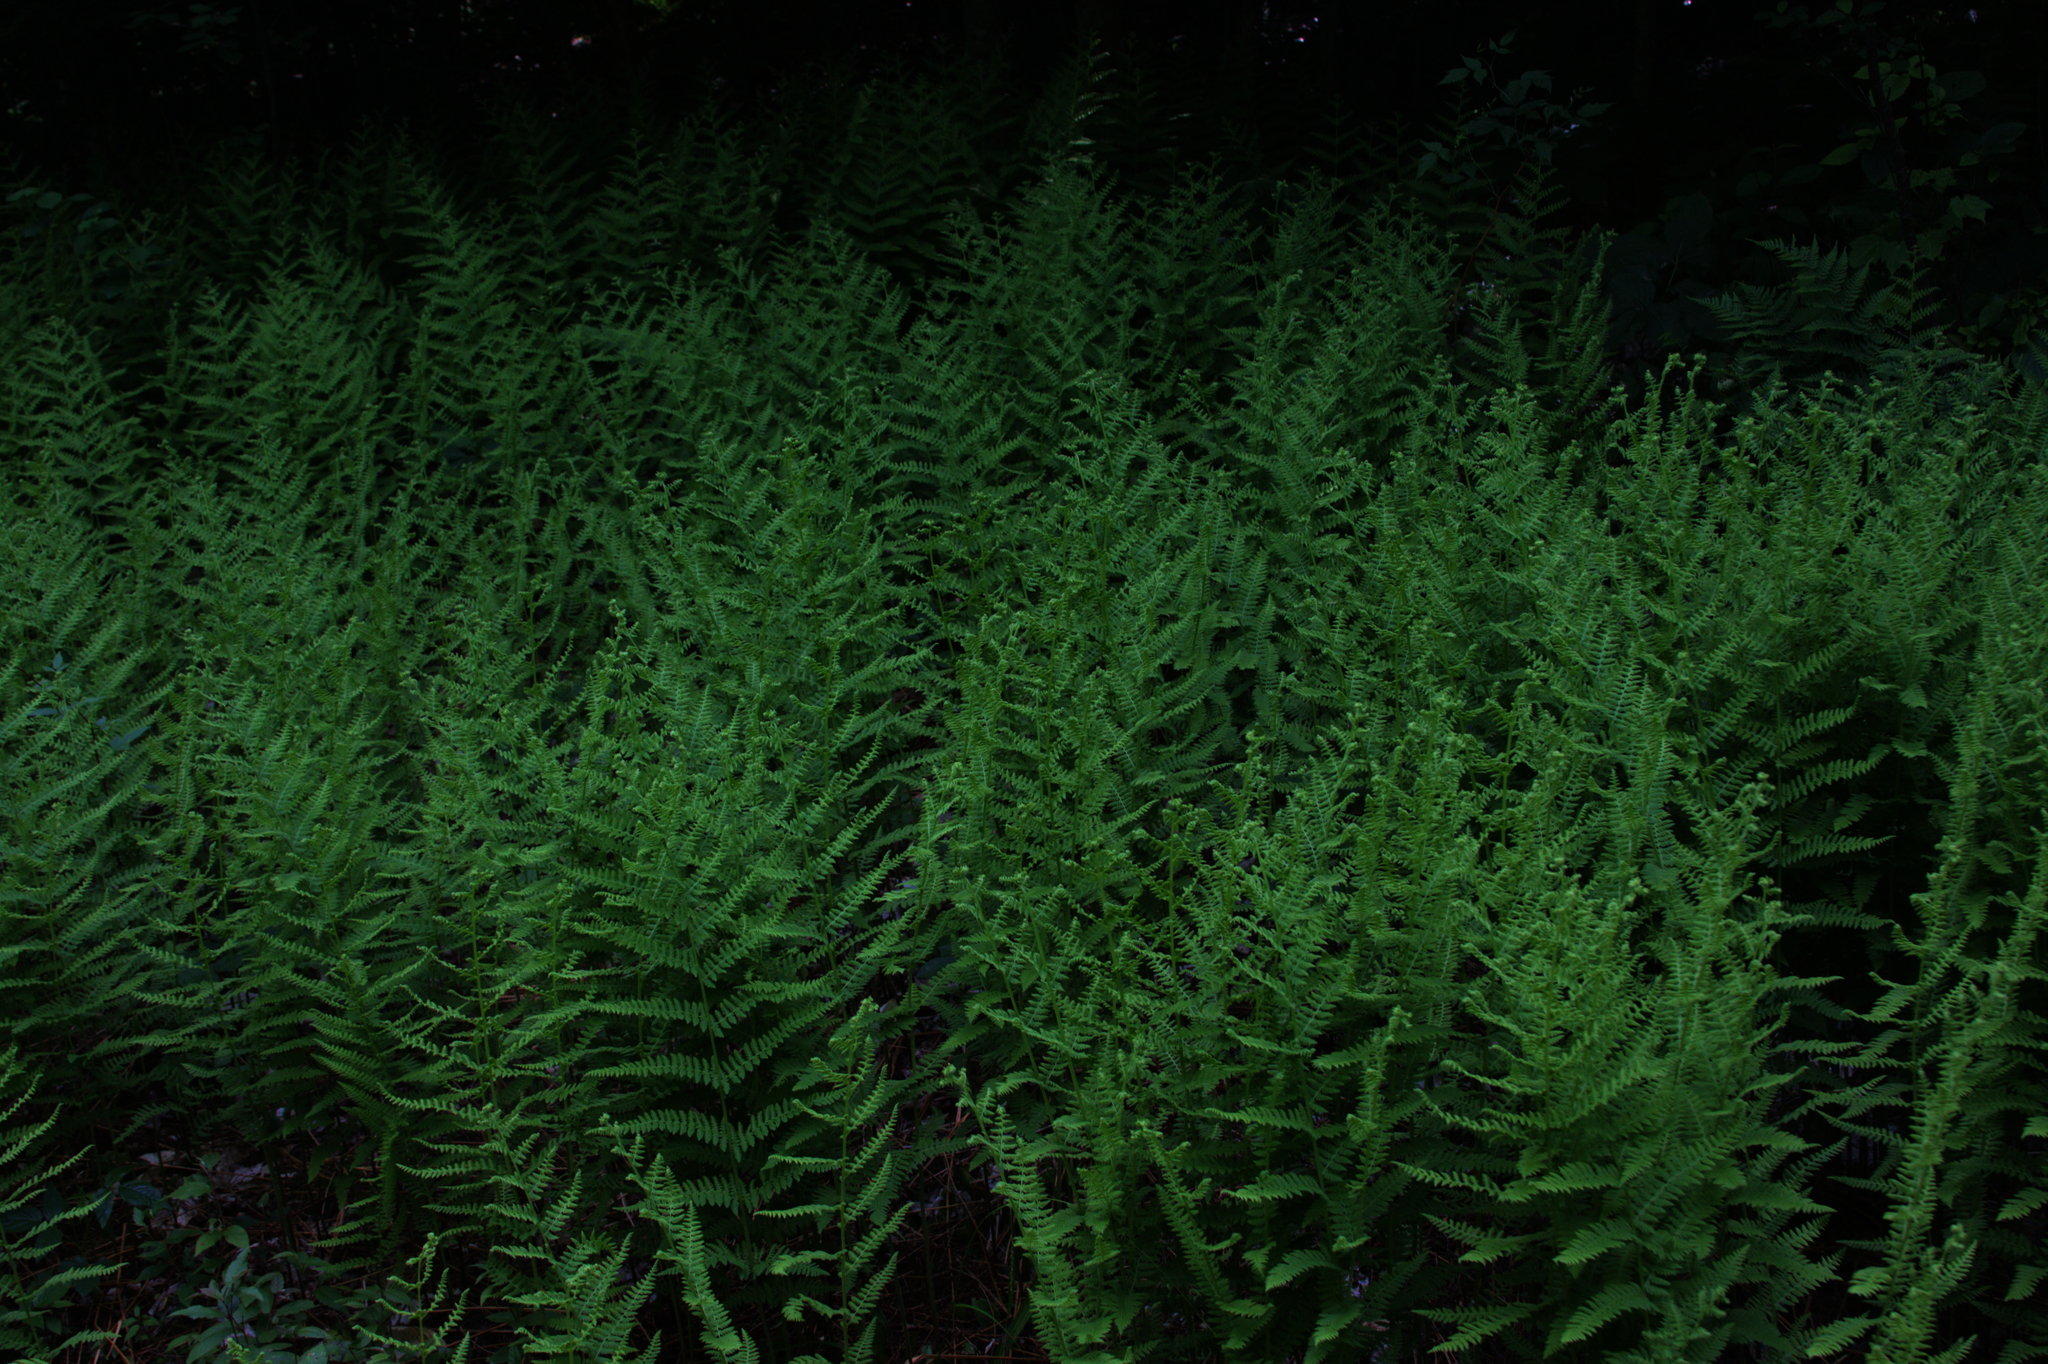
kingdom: Plantae
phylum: Tracheophyta
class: Polypodiopsida
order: Polypodiales
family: Dennstaedtiaceae
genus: Sitobolium
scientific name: Sitobolium punctilobum
